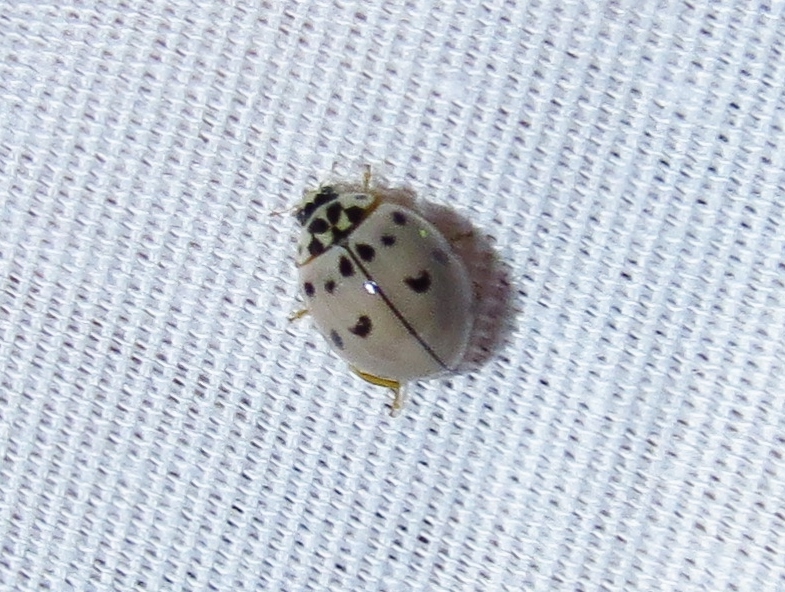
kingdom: Animalia
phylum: Arthropoda
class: Insecta
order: Coleoptera
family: Coccinellidae
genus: Olla
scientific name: Olla v-nigrum
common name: Ashy gray lady beetle
